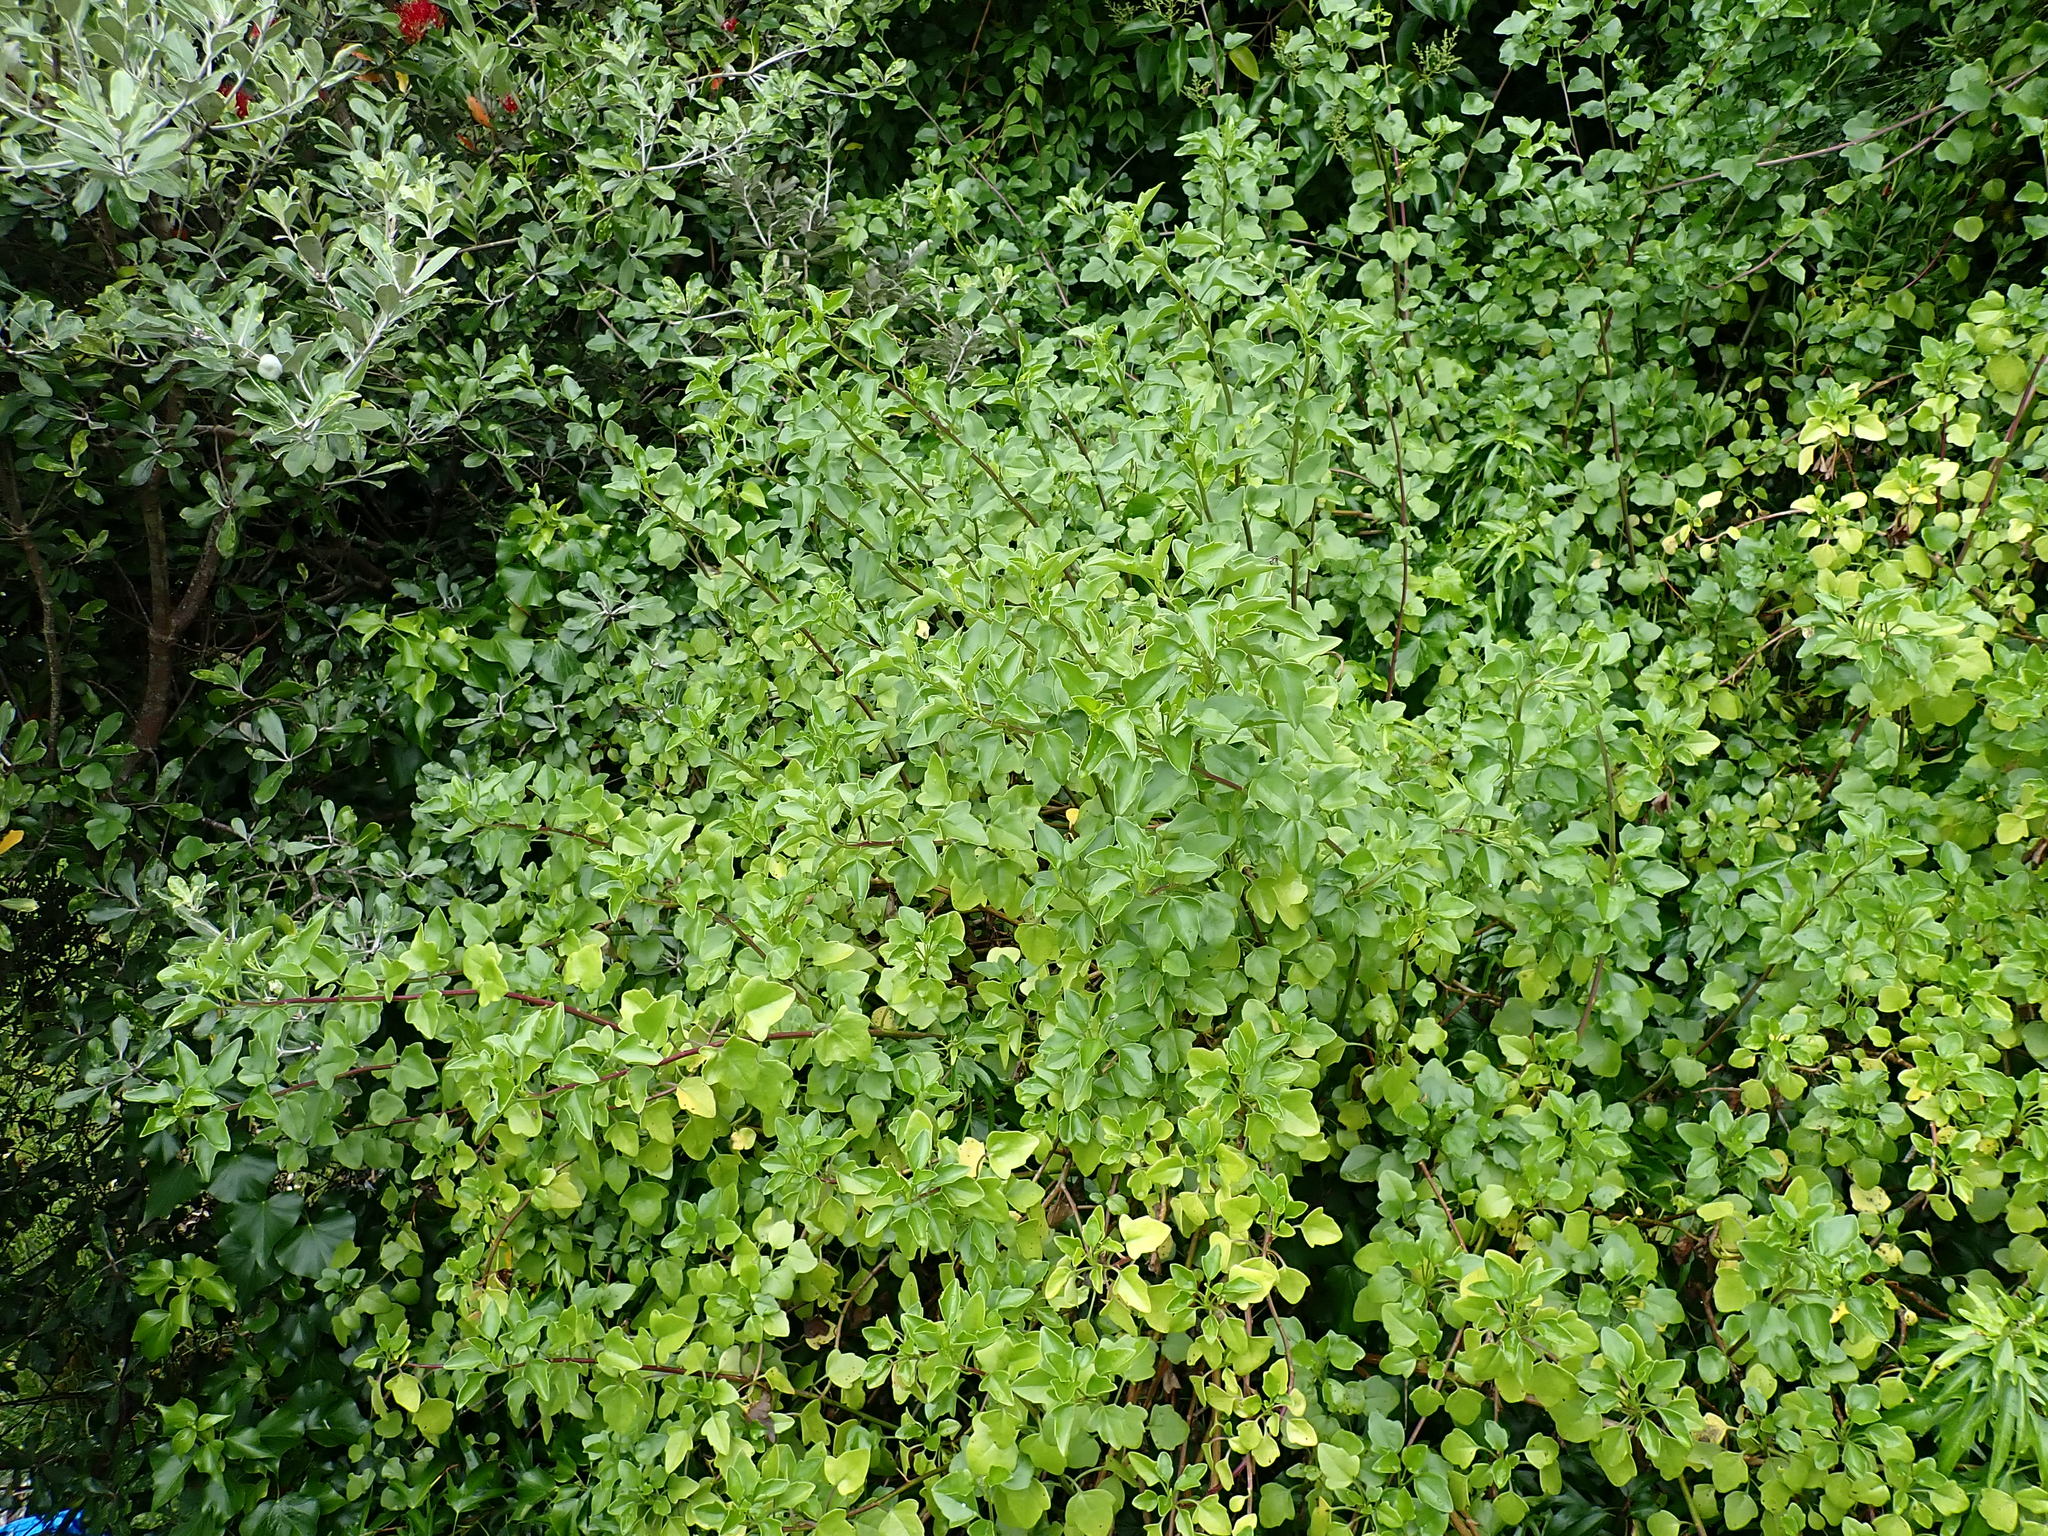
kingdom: Plantae
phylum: Tracheophyta
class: Magnoliopsida
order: Asterales
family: Asteraceae
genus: Senecio
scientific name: Senecio angulatus
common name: Climbing groundsel
